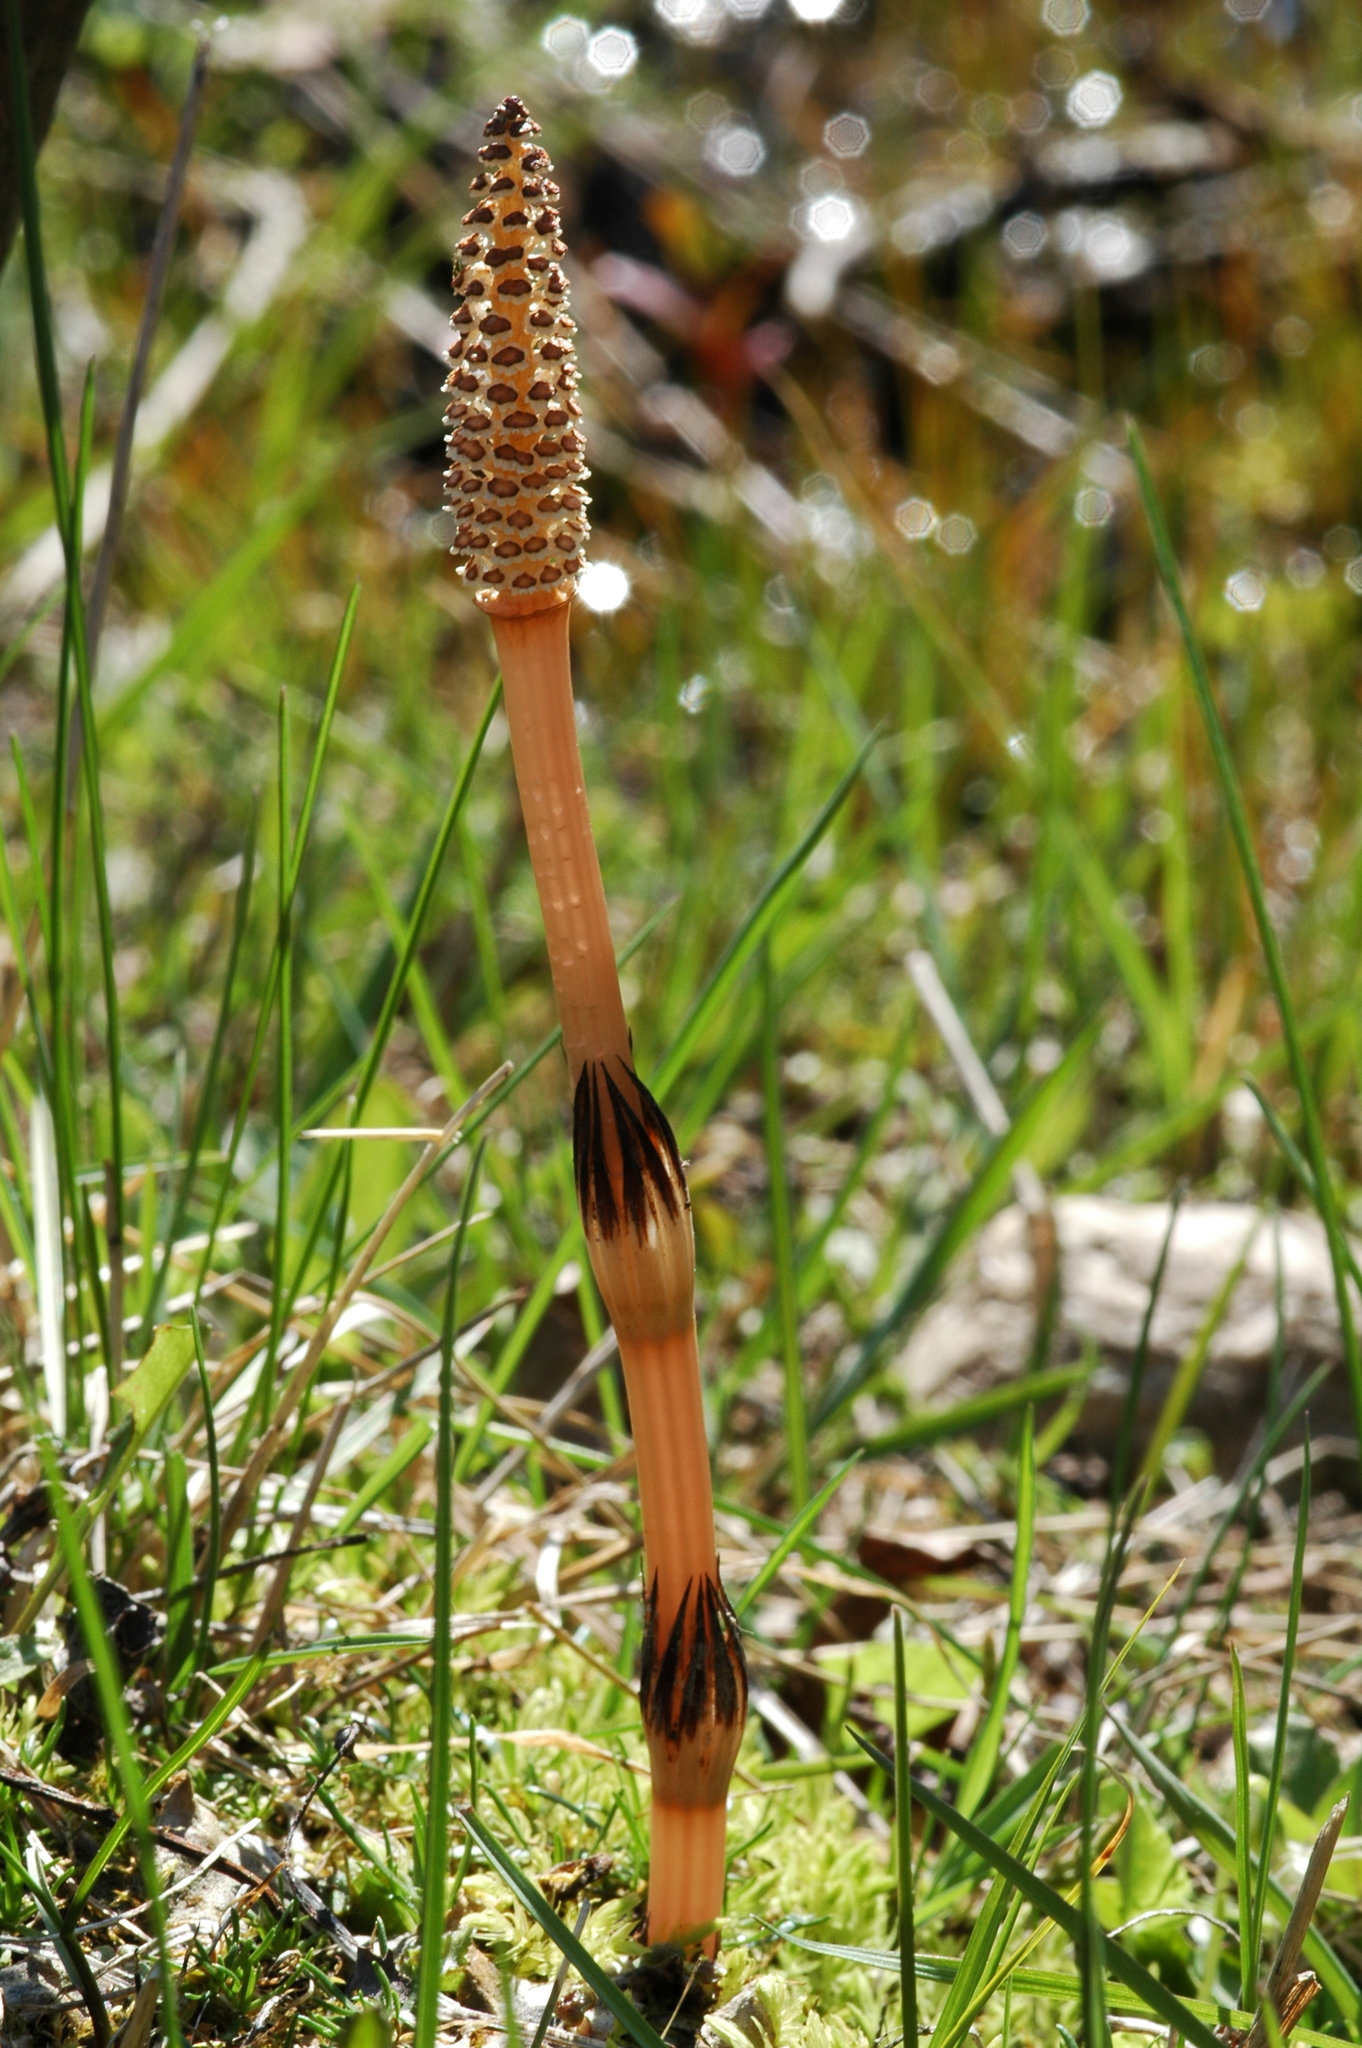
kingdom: Plantae
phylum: Tracheophyta
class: Polypodiopsida
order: Equisetales
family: Equisetaceae
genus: Equisetum
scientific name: Equisetum arvense
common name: Field horsetail
